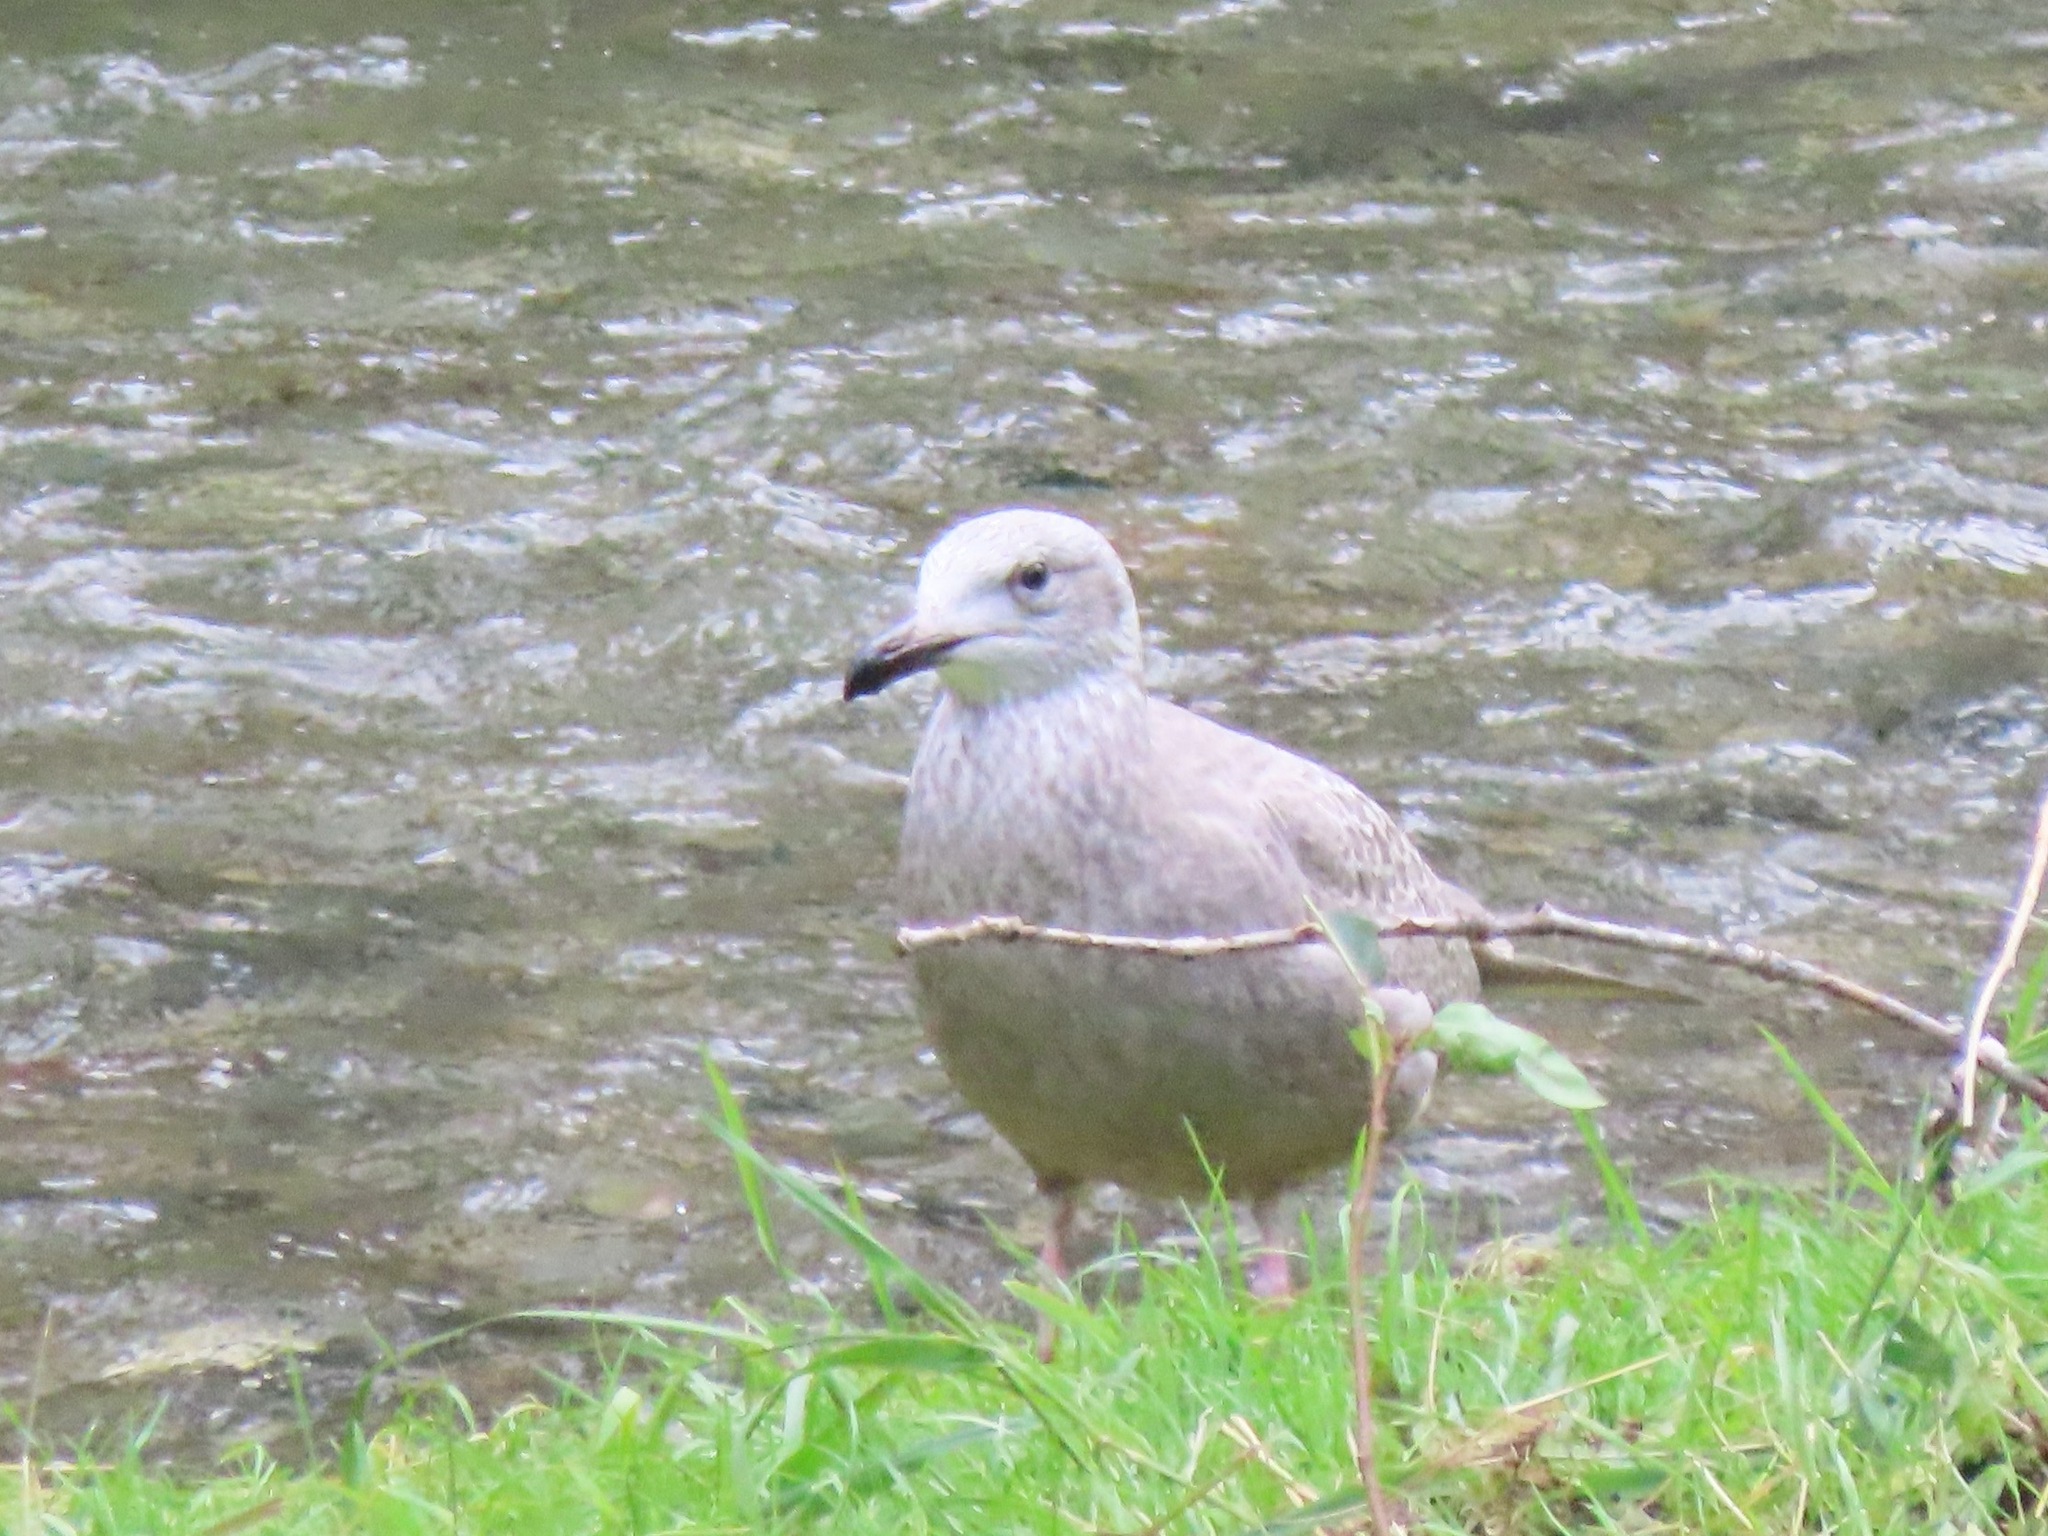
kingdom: Animalia
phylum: Chordata
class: Aves
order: Charadriiformes
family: Laridae
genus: Larus
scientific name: Larus glaucescens
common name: Glaucous-winged gull
